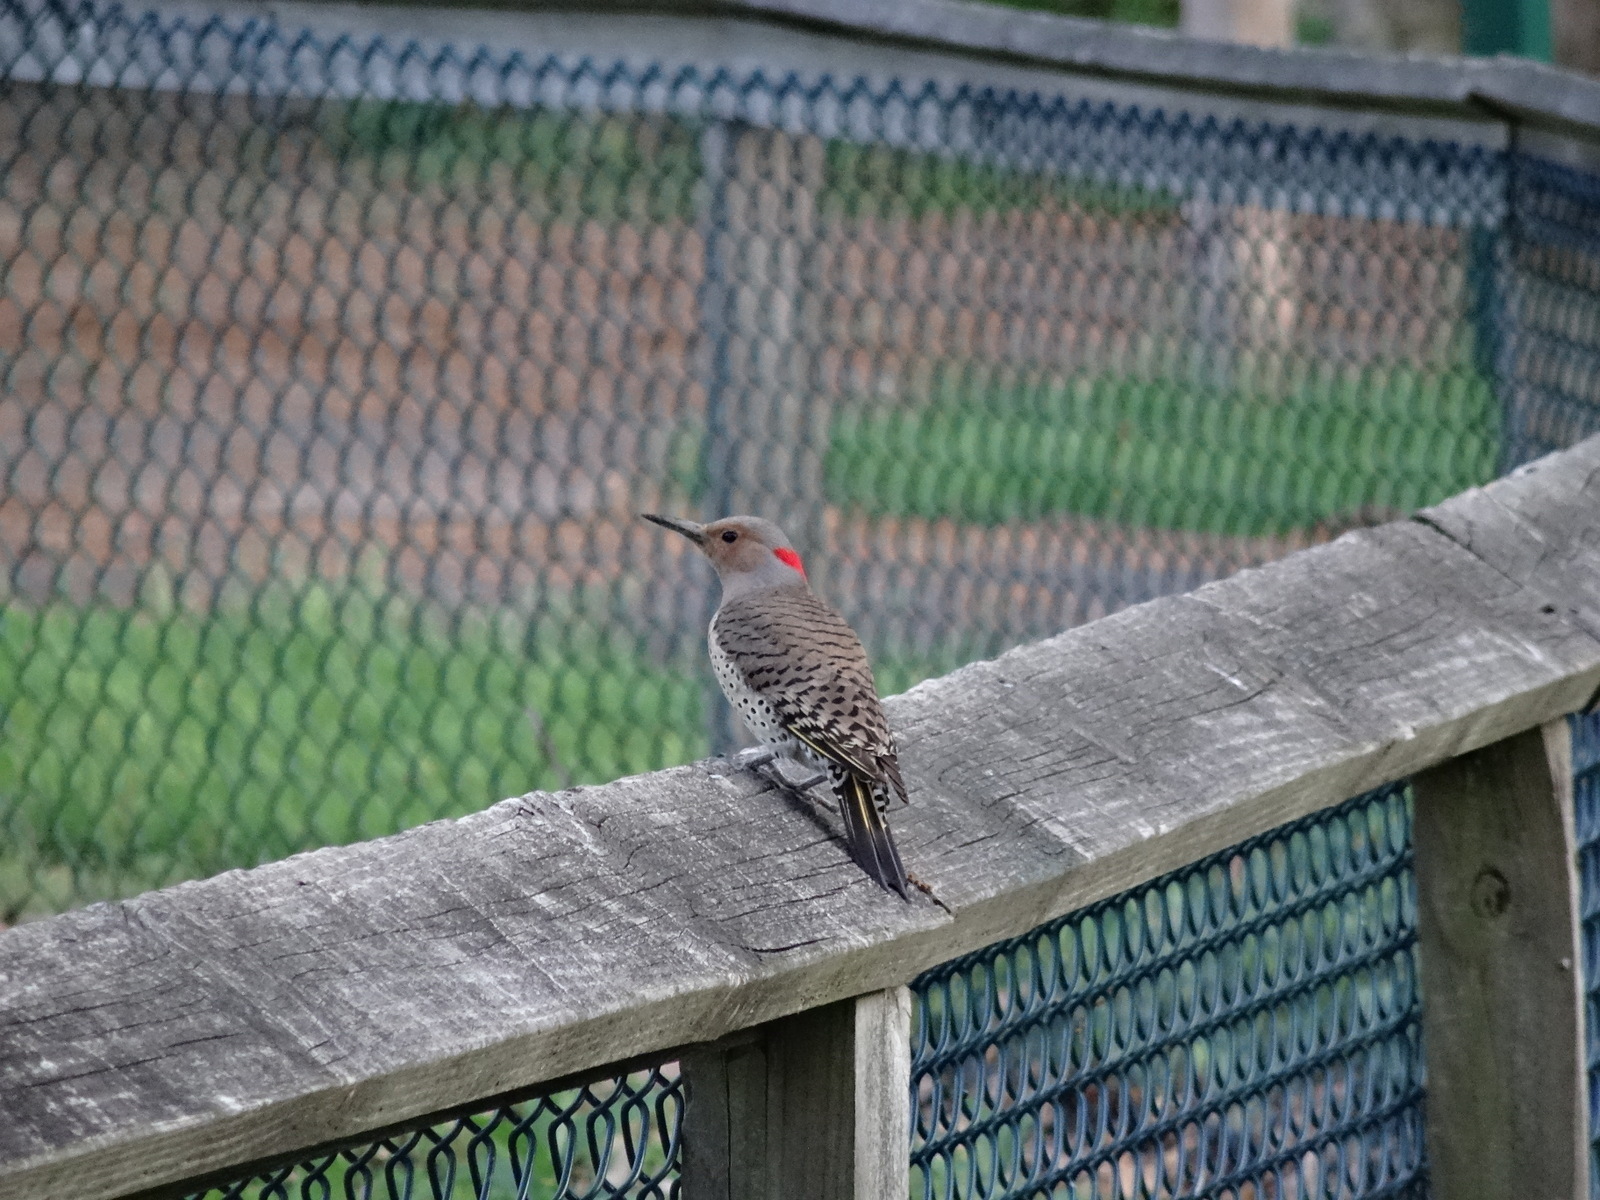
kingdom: Animalia
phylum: Chordata
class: Aves
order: Piciformes
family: Picidae
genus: Colaptes
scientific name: Colaptes auratus
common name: Northern flicker
